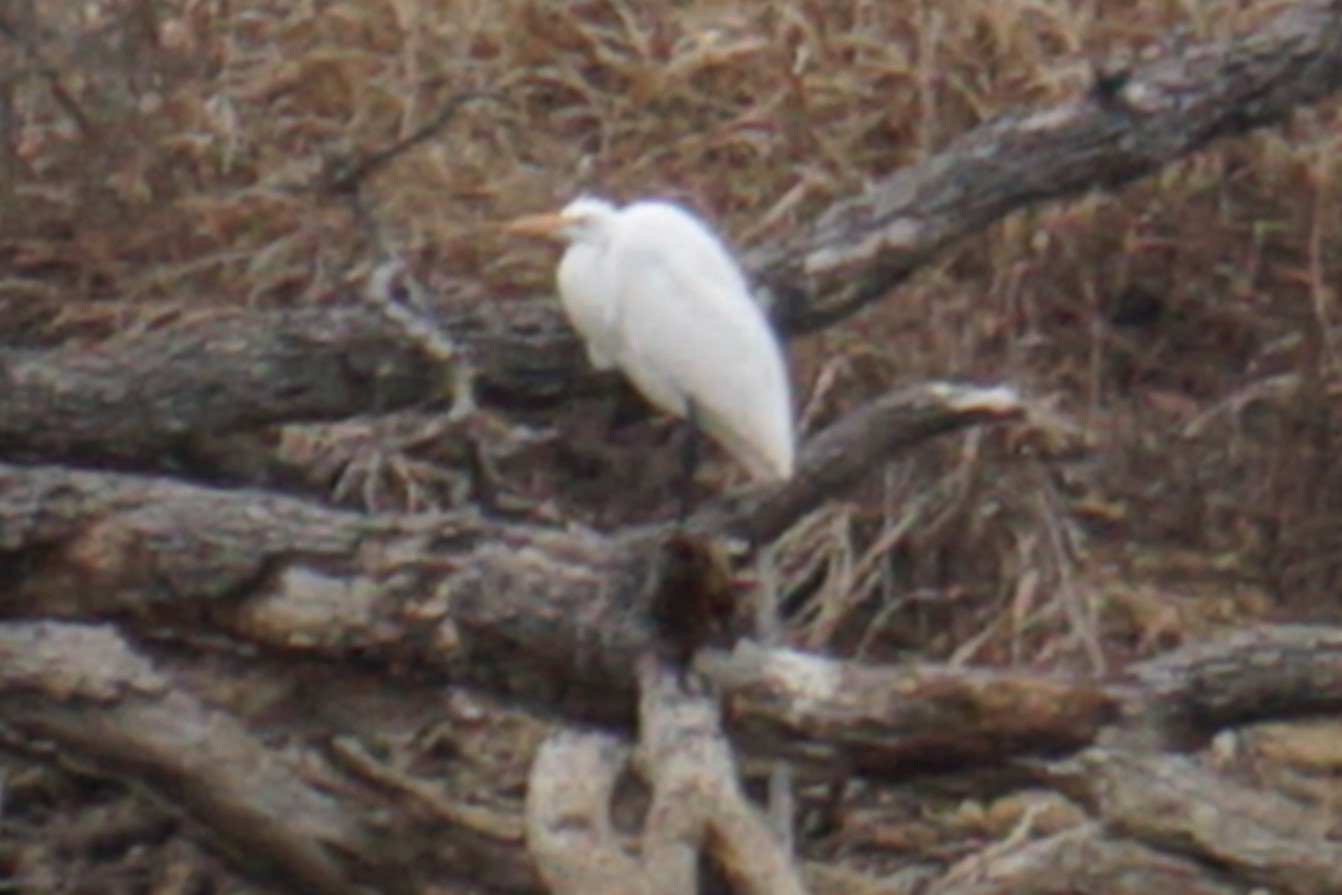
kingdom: Animalia
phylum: Chordata
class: Aves
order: Pelecaniformes
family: Ardeidae
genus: Ardea
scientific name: Ardea alba
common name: Great egret
